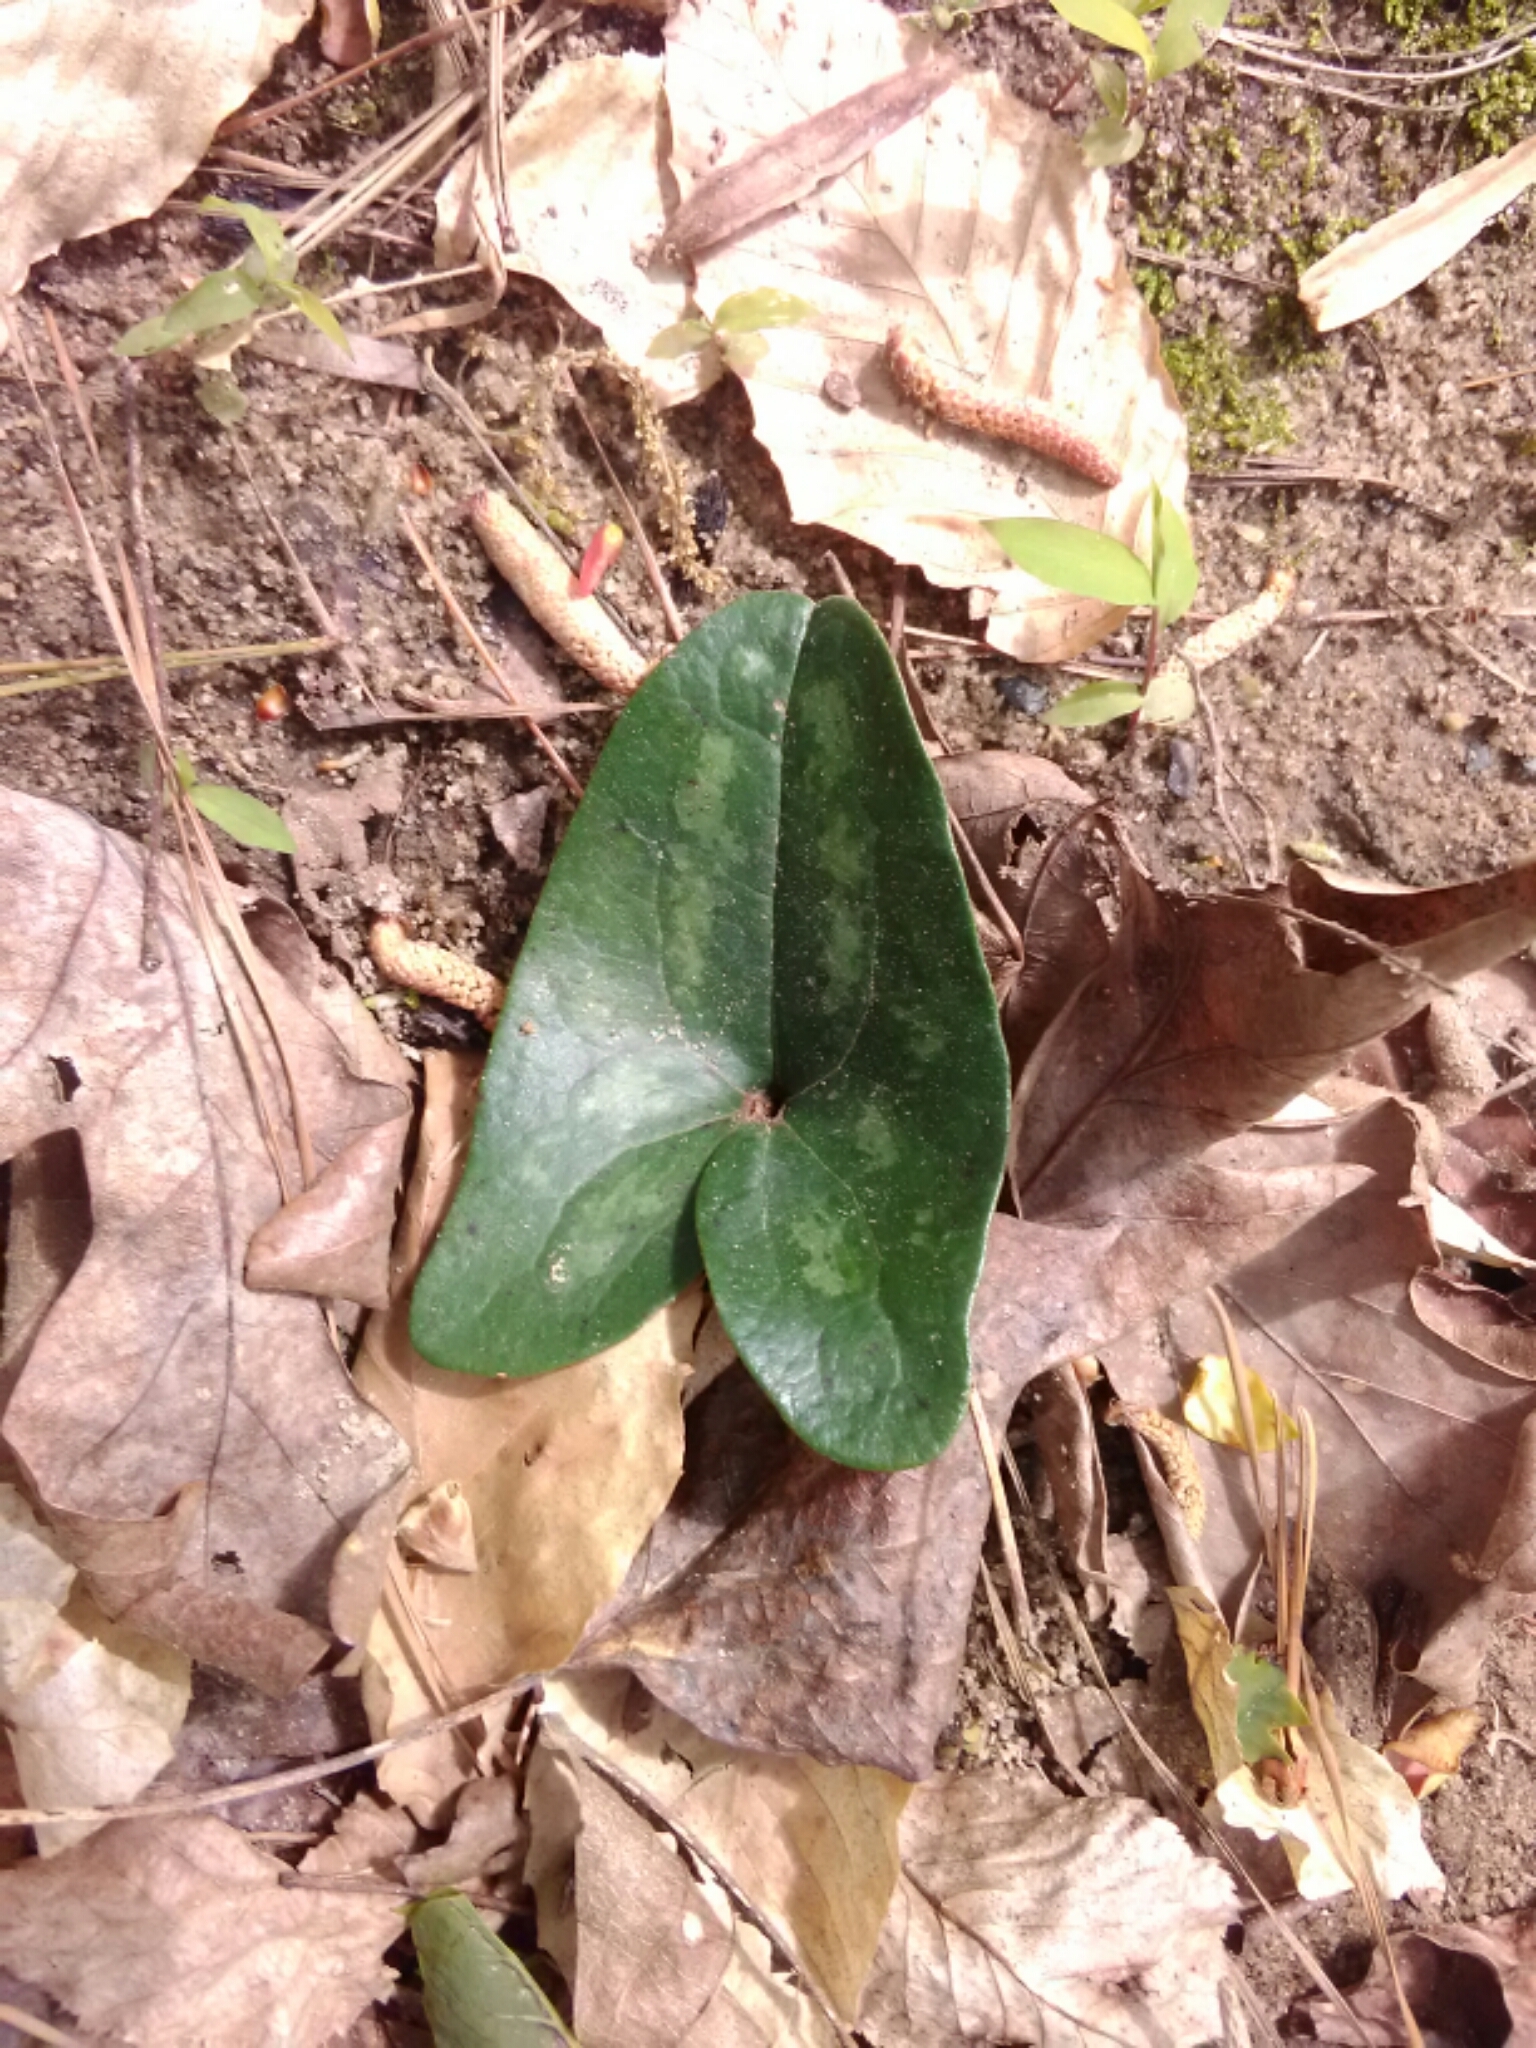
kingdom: Plantae
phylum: Tracheophyta
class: Magnoliopsida
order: Piperales
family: Aristolochiaceae
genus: Hexastylis
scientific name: Hexastylis arifolia
